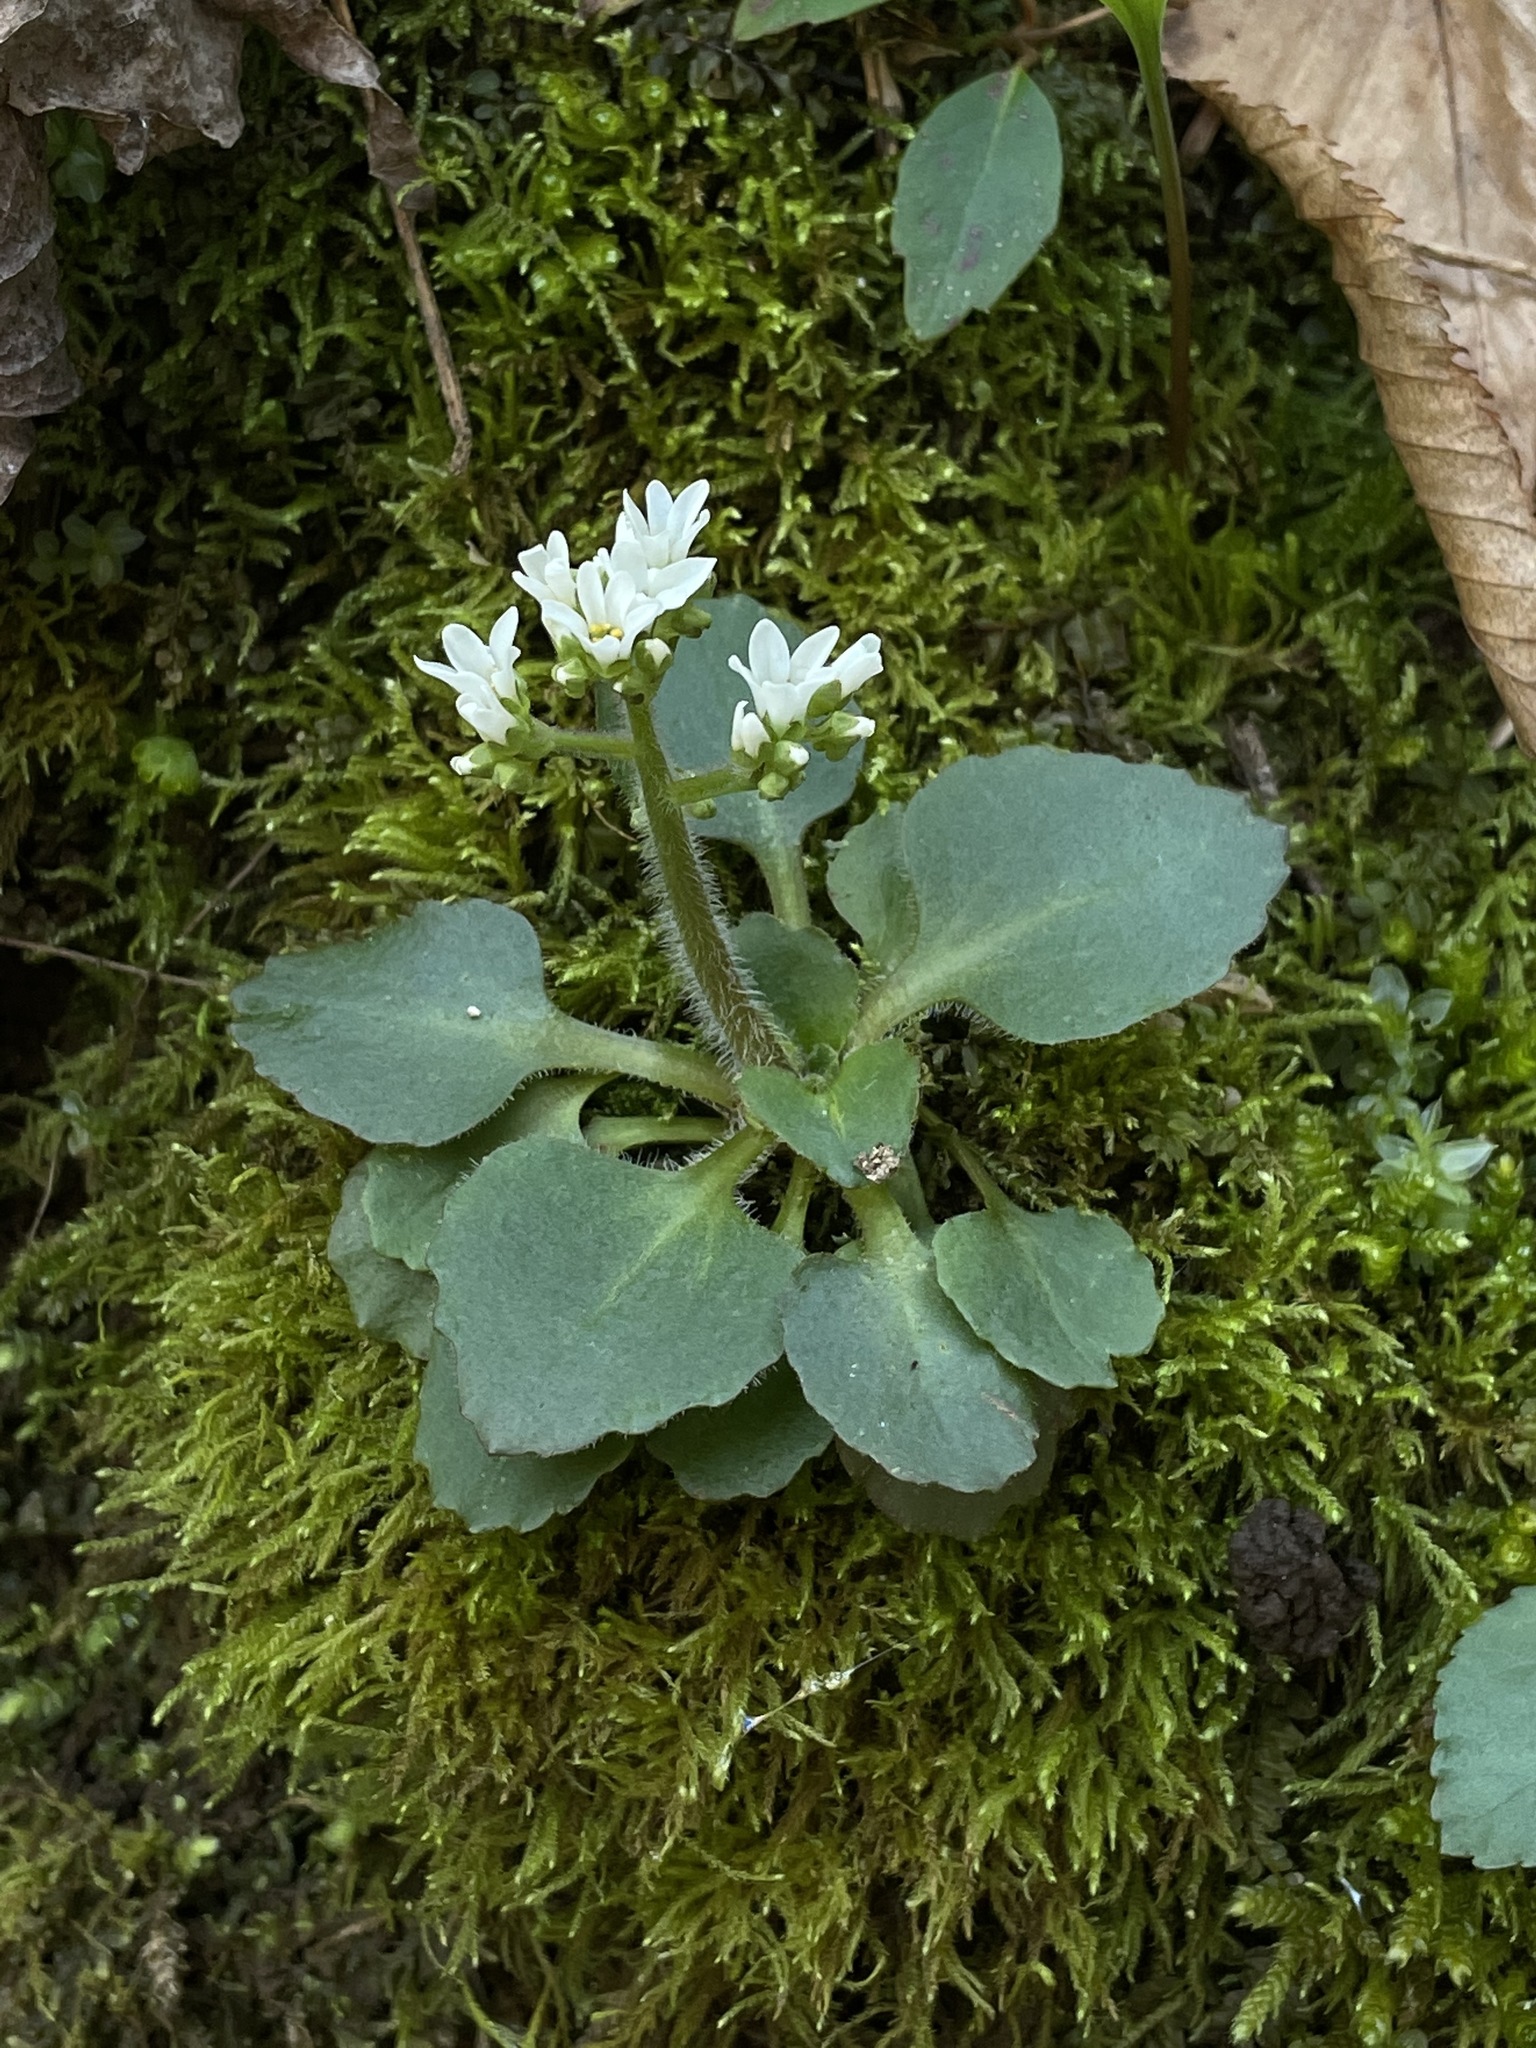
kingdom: Plantae
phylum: Tracheophyta
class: Magnoliopsida
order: Saxifragales
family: Saxifragaceae
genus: Micranthes
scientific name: Micranthes virginiensis
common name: Early saxifrage
